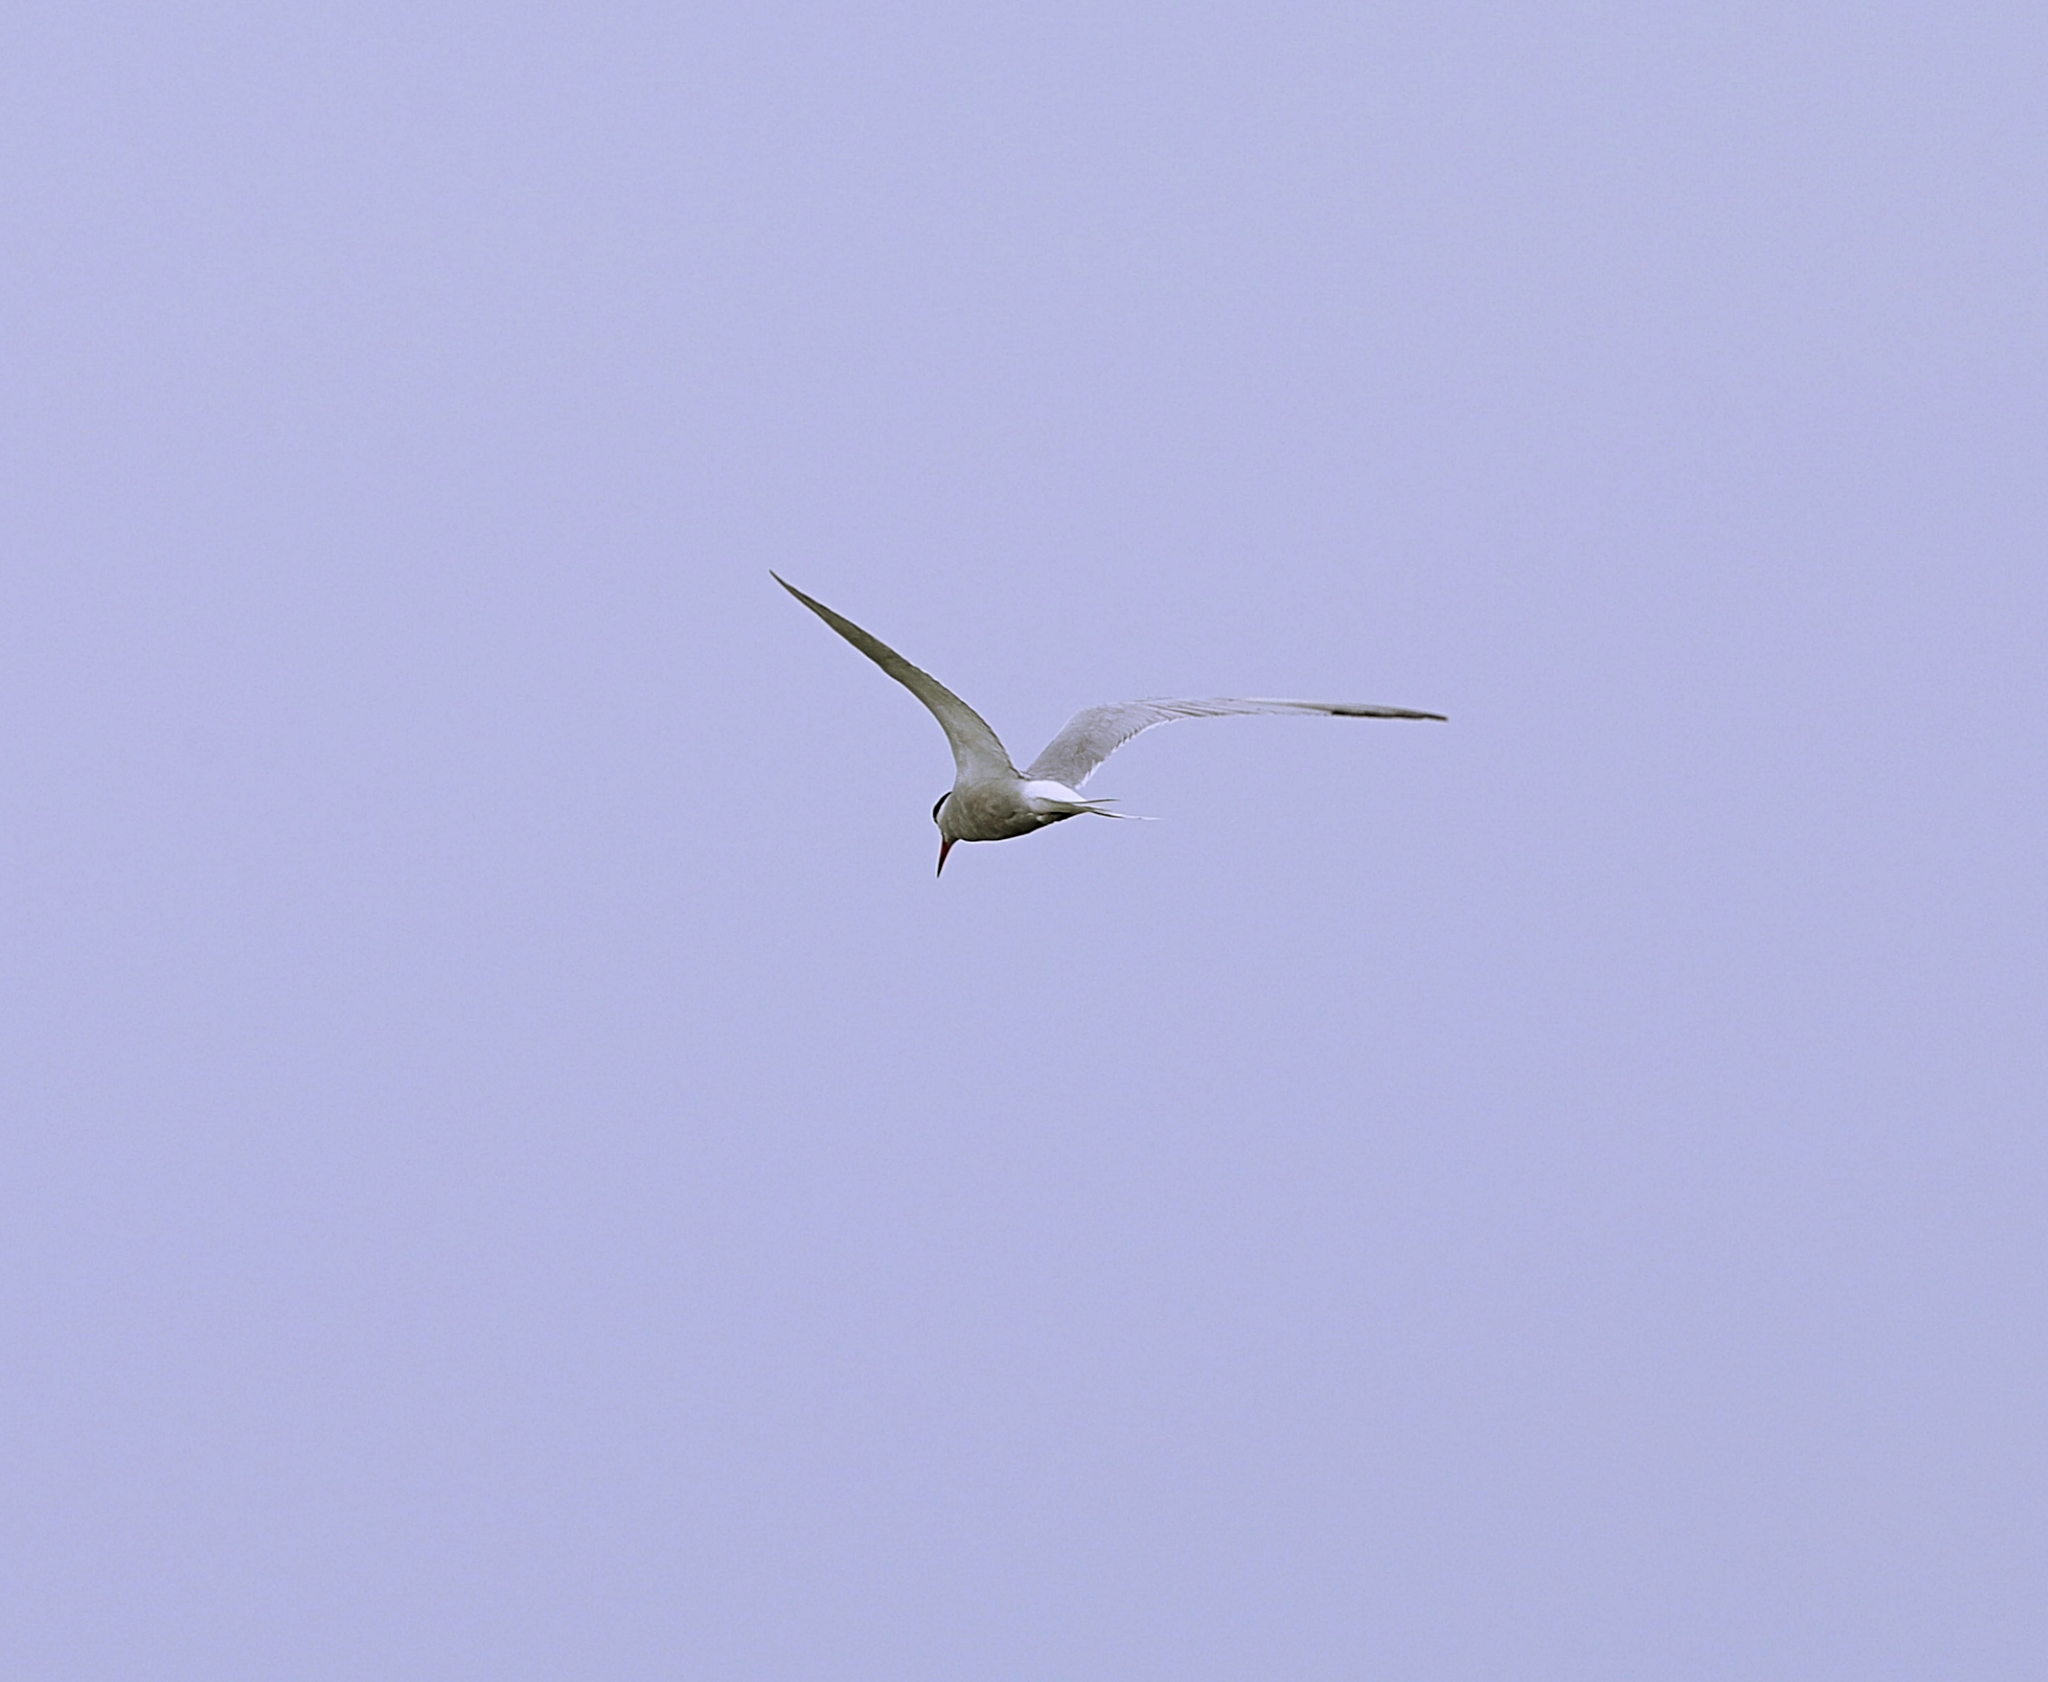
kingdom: Animalia
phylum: Chordata
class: Aves
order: Charadriiformes
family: Laridae
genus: Sterna
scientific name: Sterna hirundo
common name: Common tern
